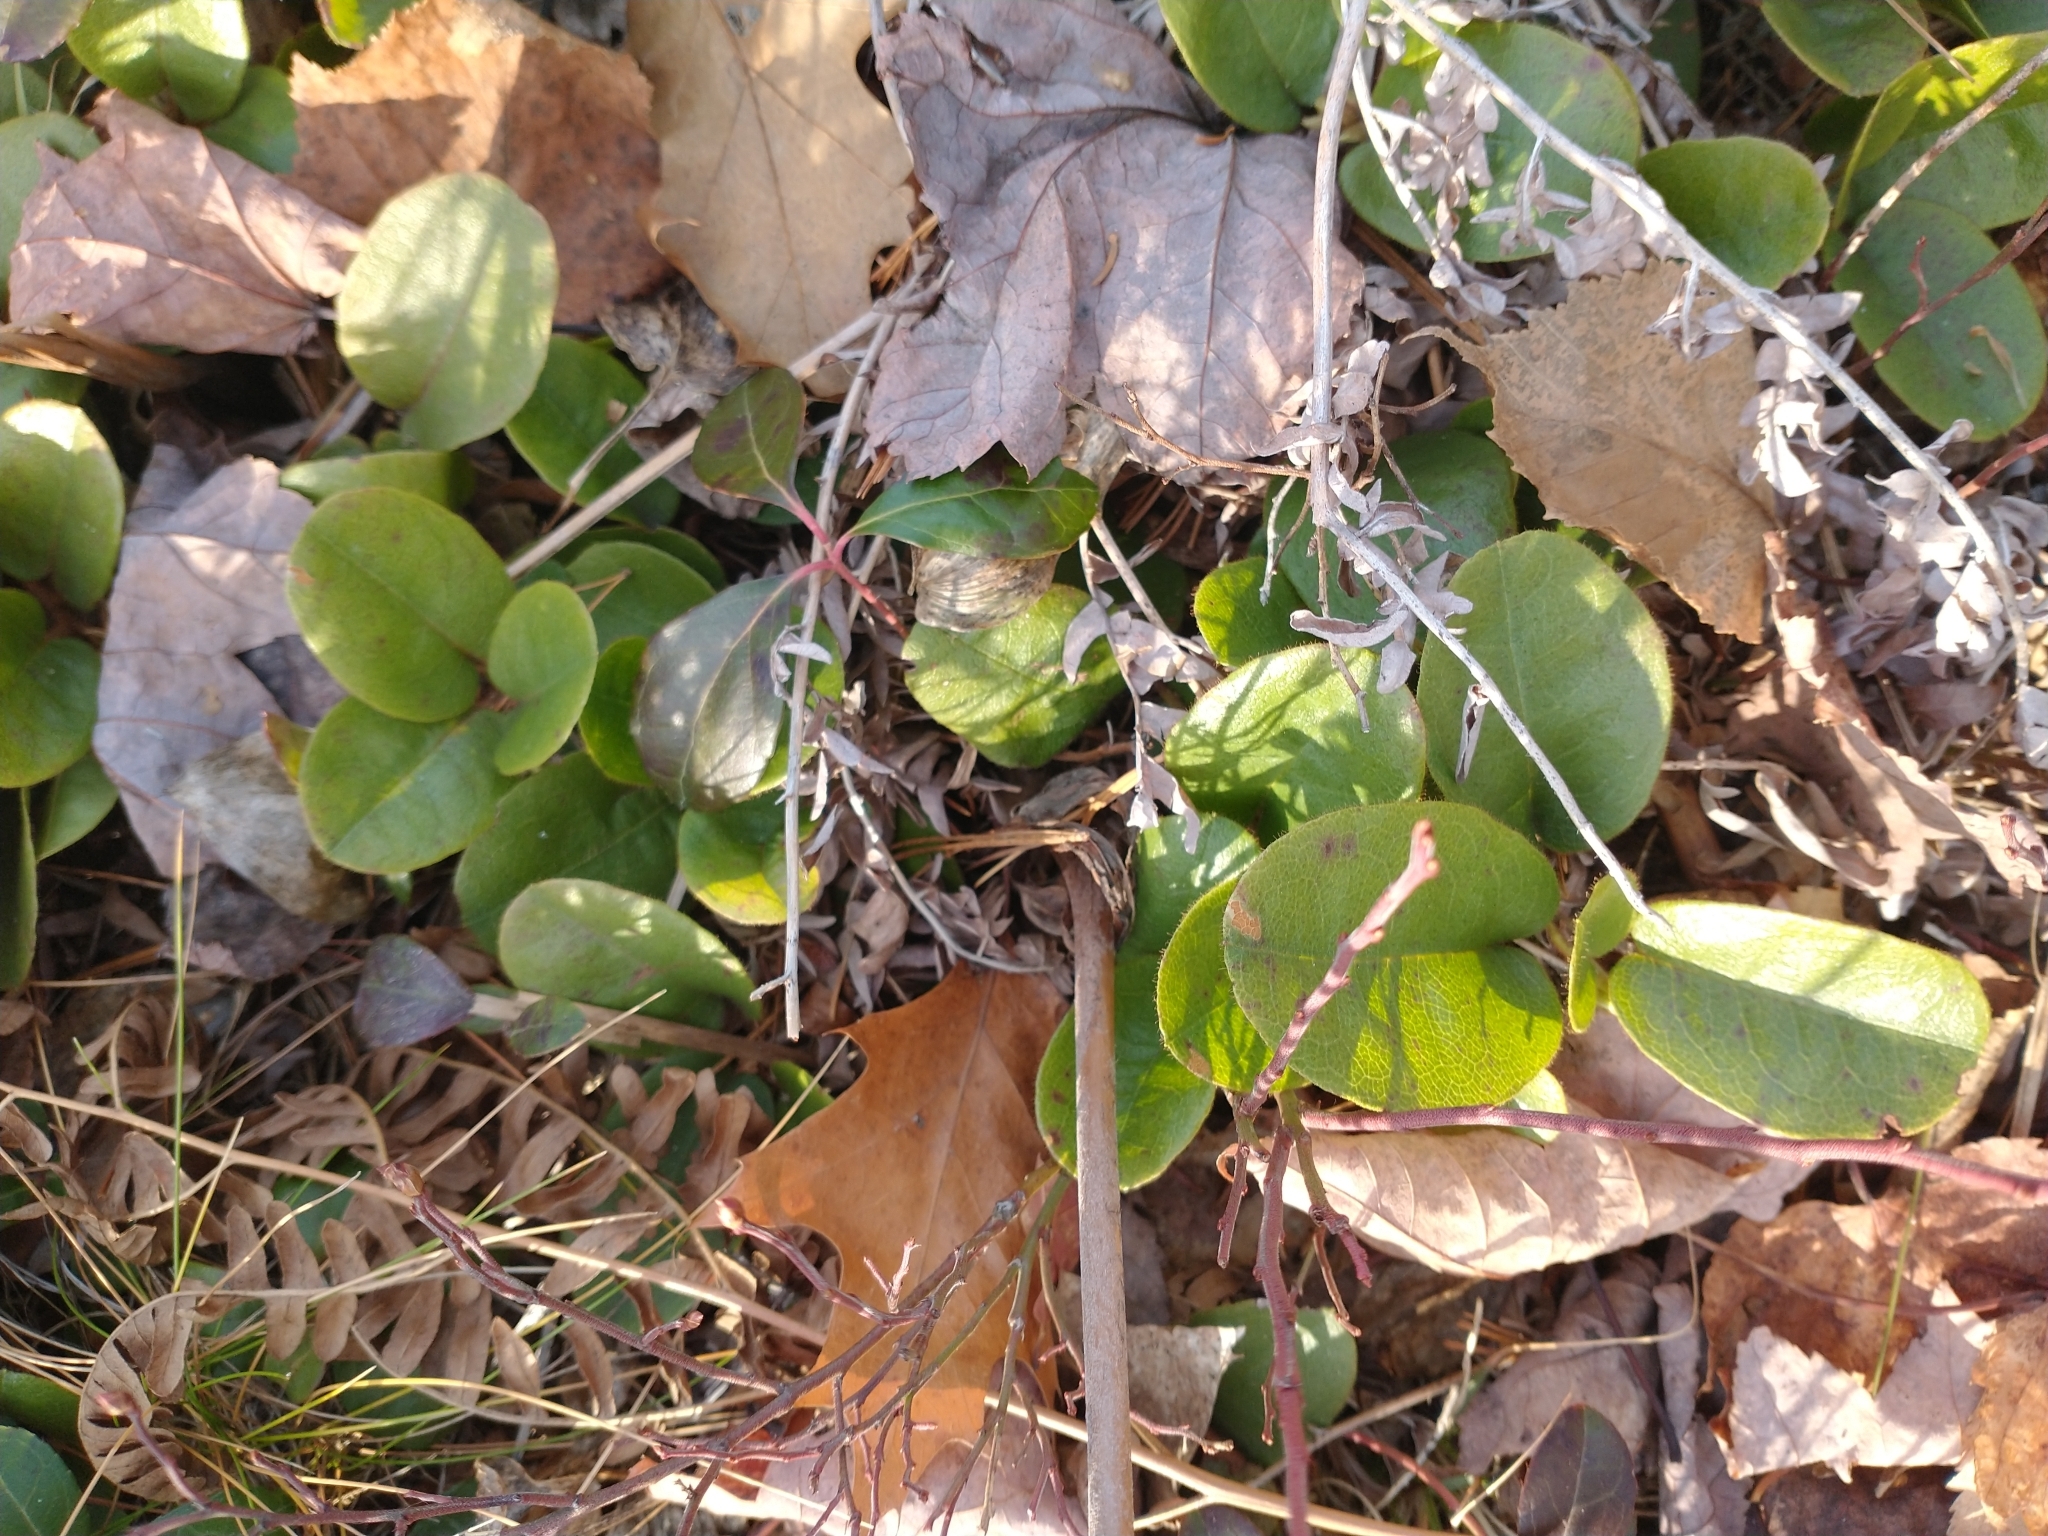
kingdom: Plantae
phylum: Tracheophyta
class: Magnoliopsida
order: Ericales
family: Ericaceae
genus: Epigaea
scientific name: Epigaea repens
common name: Gravelroot
